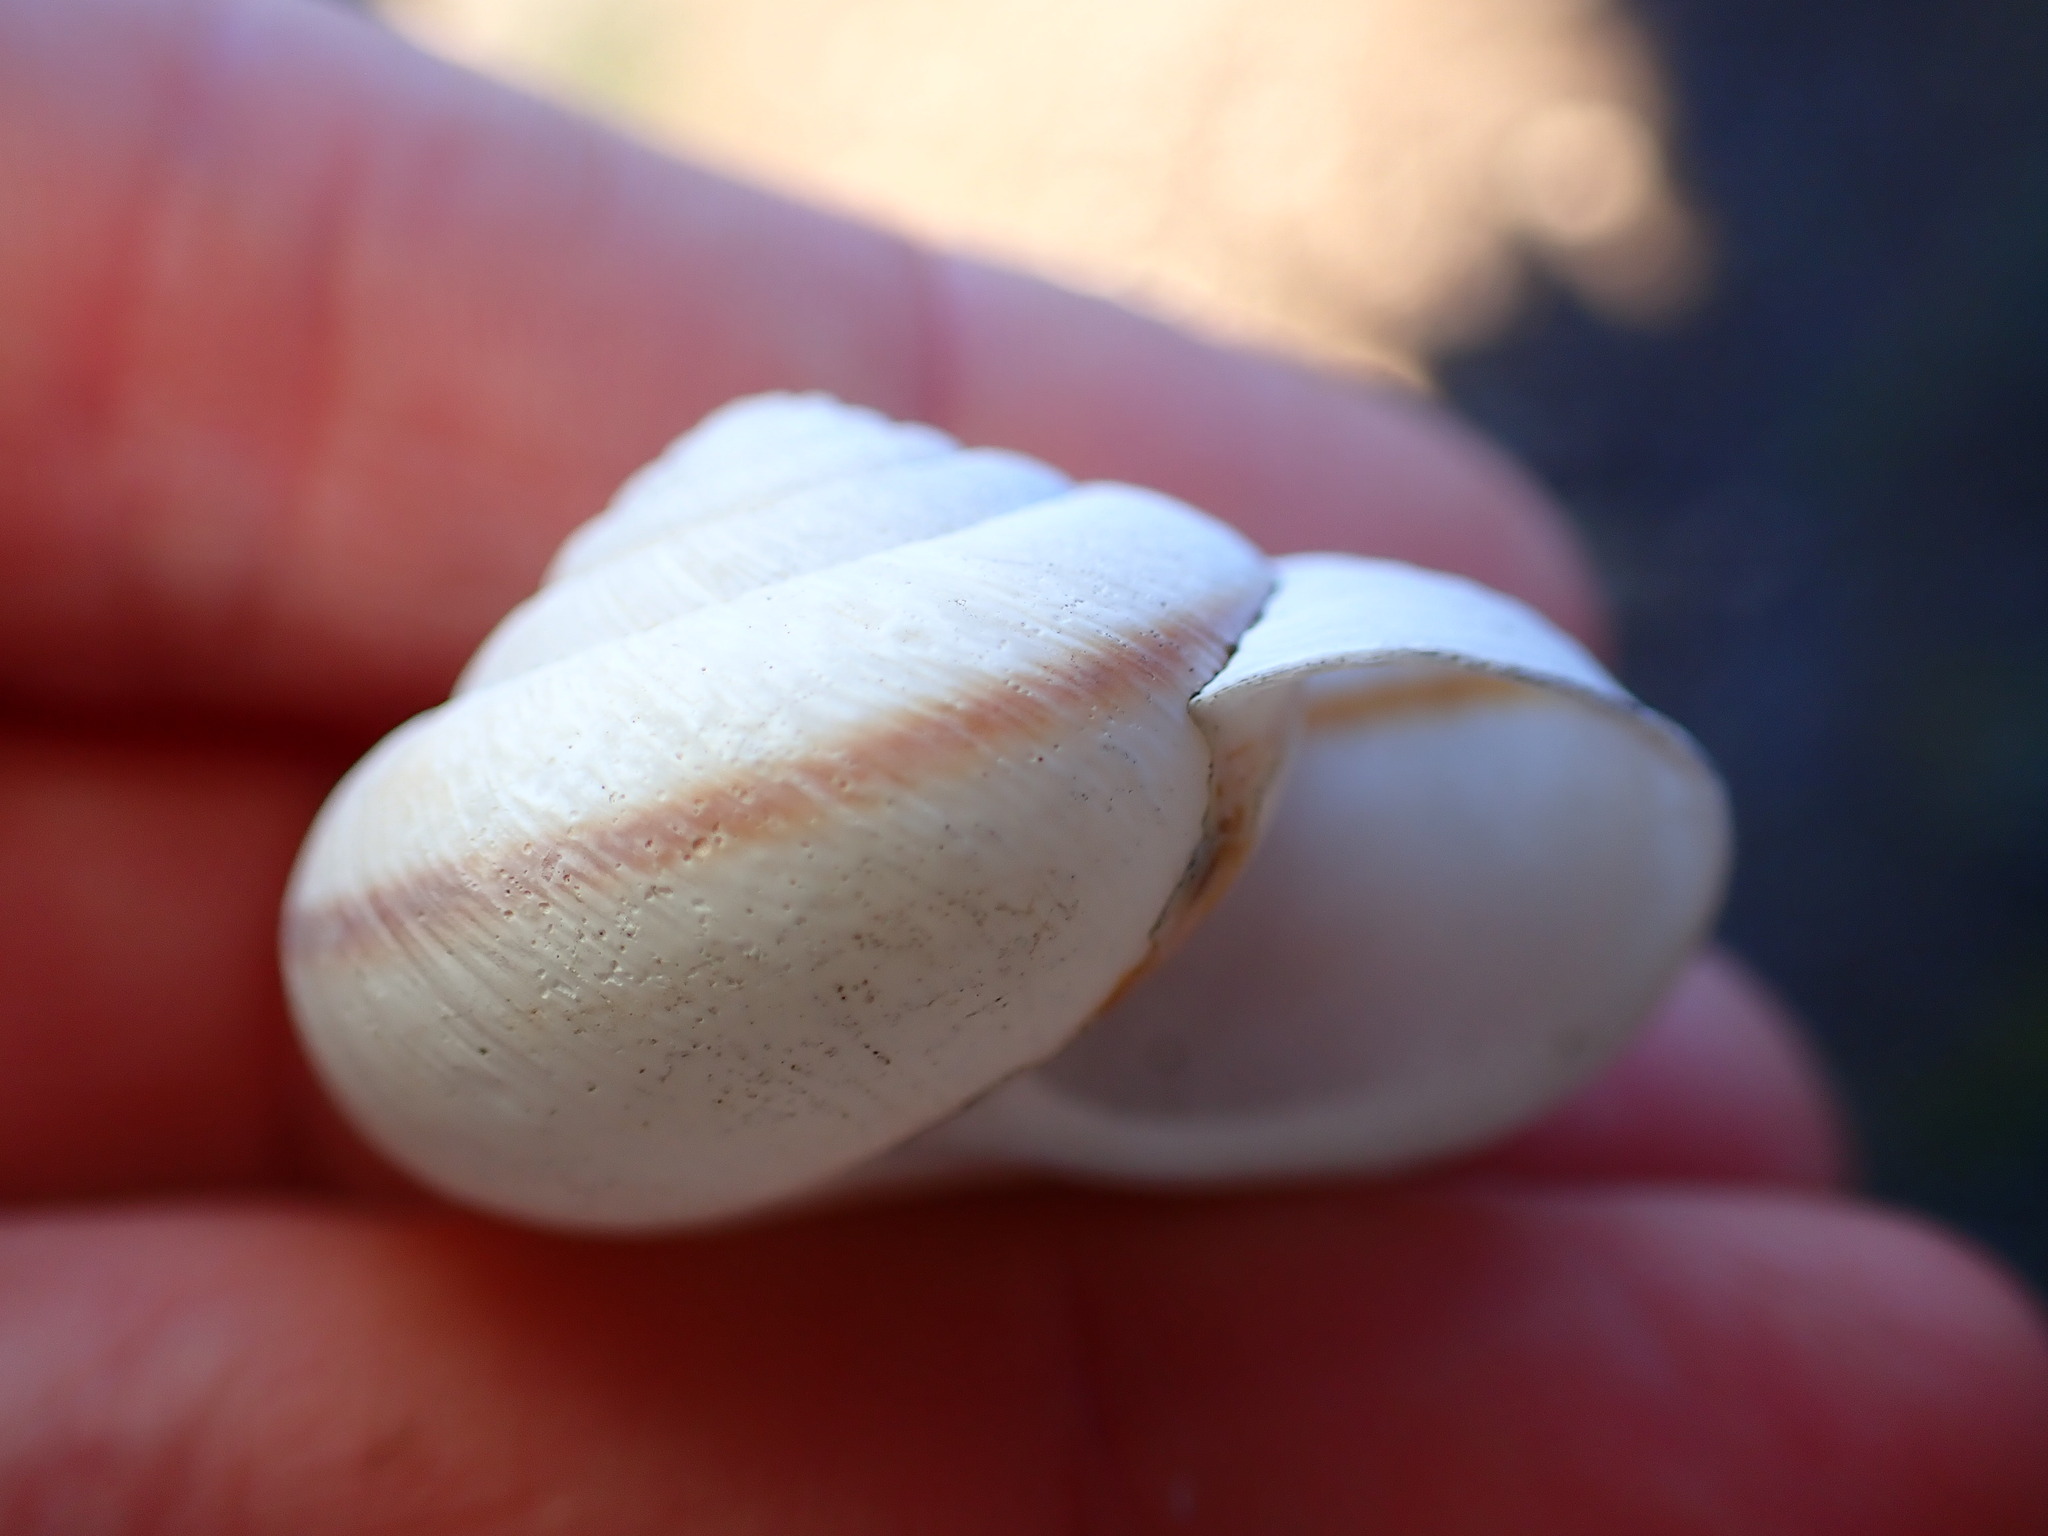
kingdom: Animalia
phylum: Mollusca
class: Gastropoda
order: Stylommatophora
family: Xanthonychidae
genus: Helminthoglypta
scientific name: Helminthoglypta arrosa
